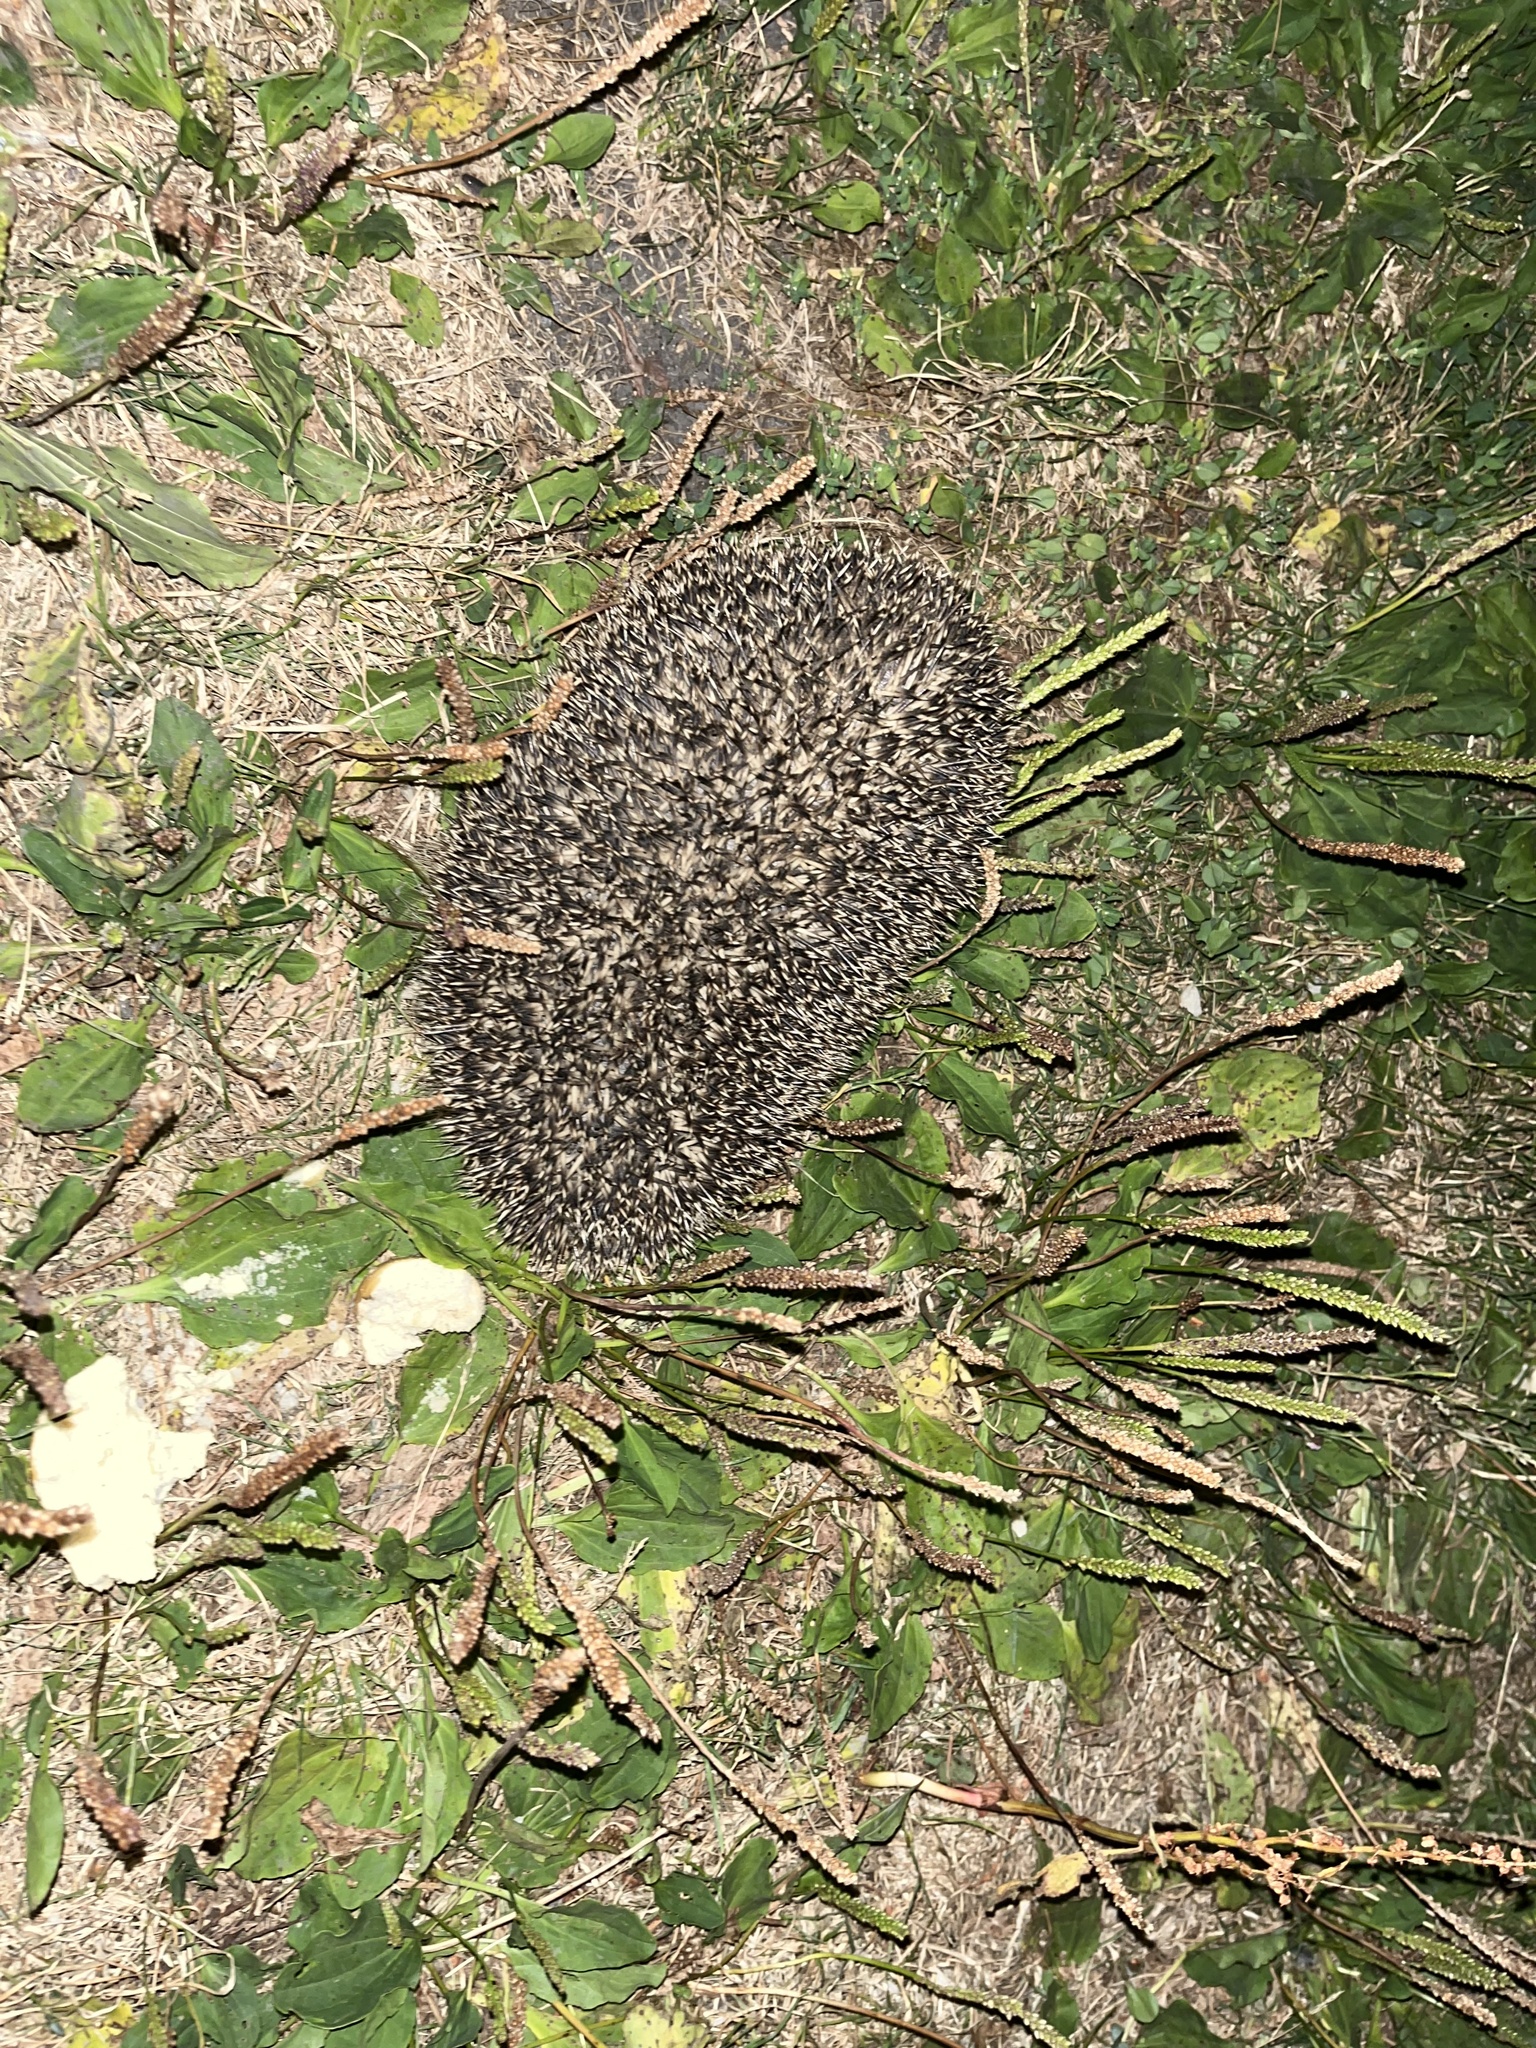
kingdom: Animalia
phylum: Chordata
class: Mammalia
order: Erinaceomorpha
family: Erinaceidae
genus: Erinaceus
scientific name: Erinaceus europaeus
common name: West european hedgehog
